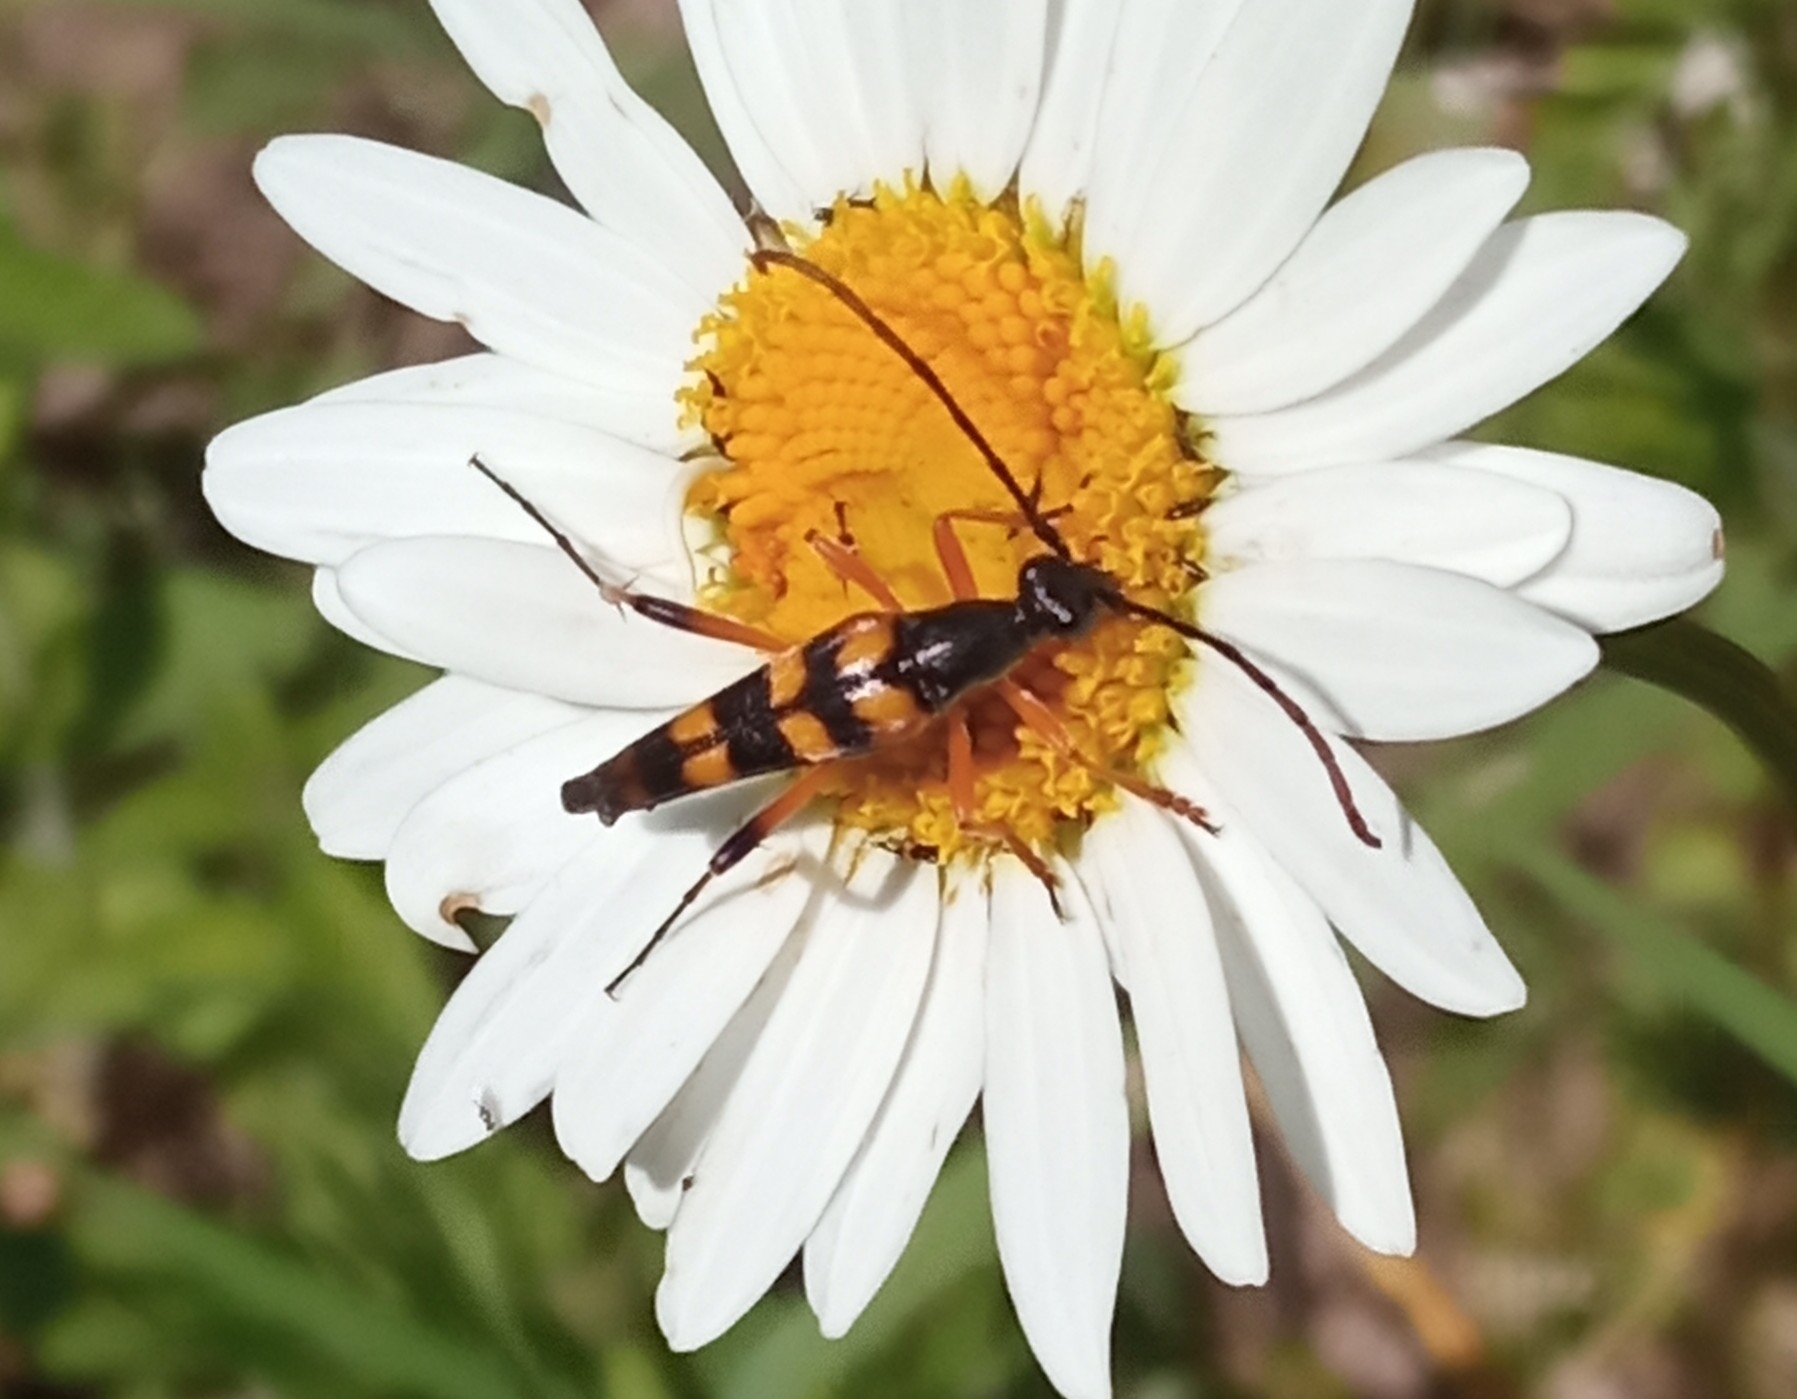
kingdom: Animalia
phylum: Arthropoda
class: Insecta
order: Coleoptera
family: Cerambycidae
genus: Strangalia
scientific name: Strangalia attenuata
